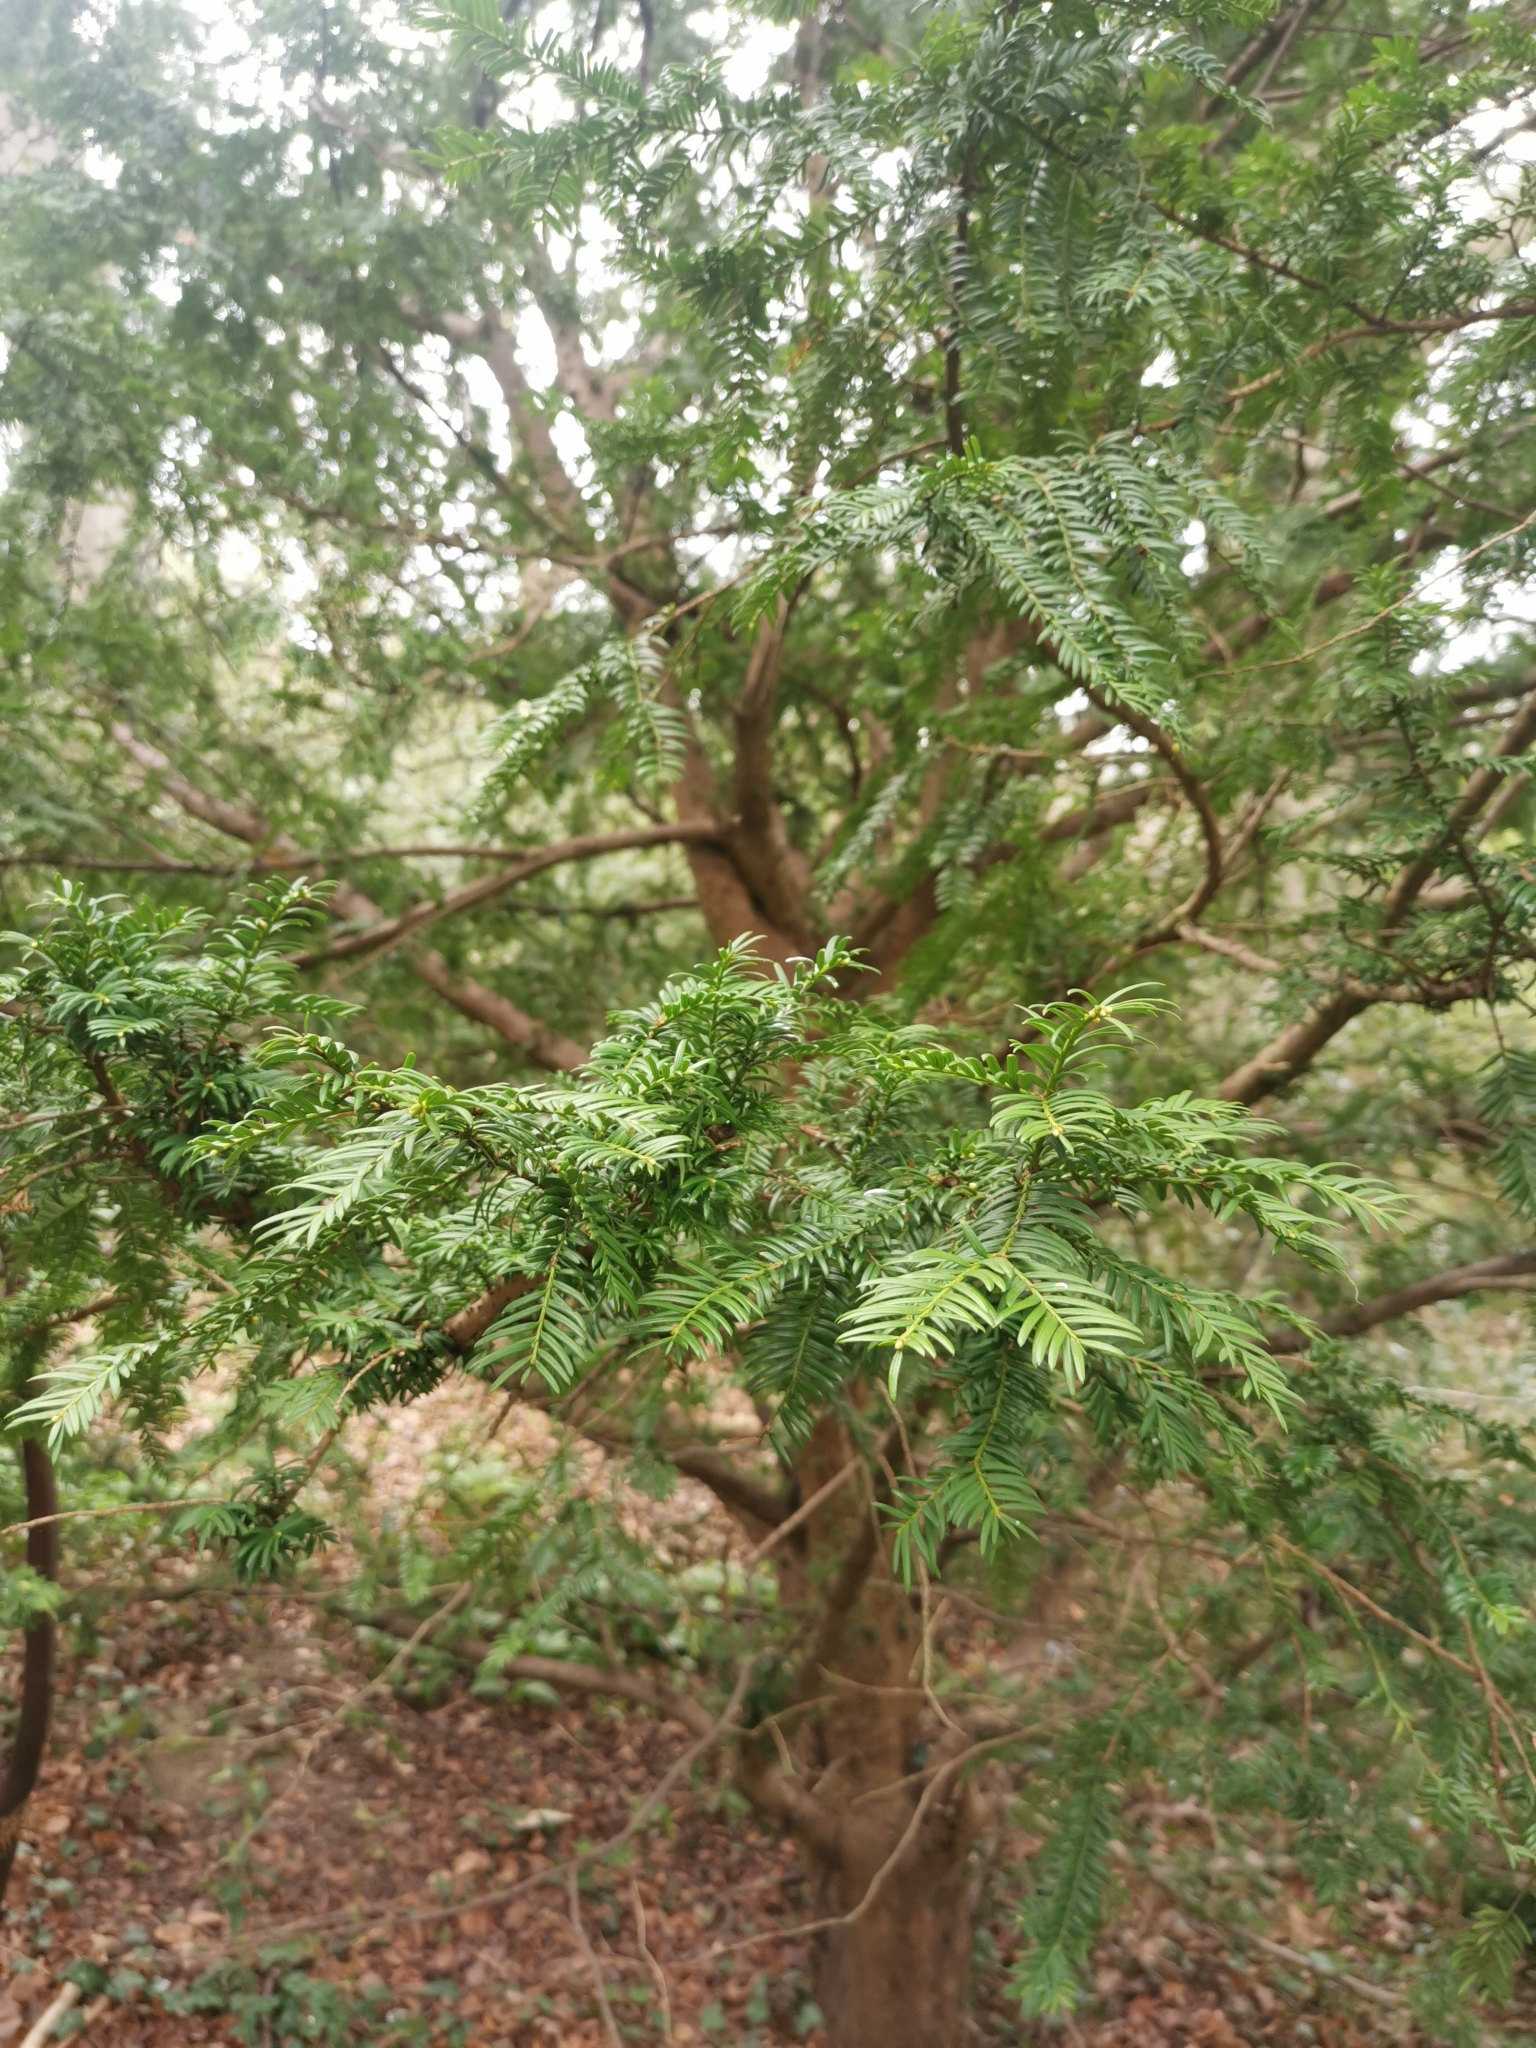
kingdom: Plantae
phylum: Tracheophyta
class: Pinopsida
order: Pinales
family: Taxaceae
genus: Taxus
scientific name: Taxus baccata
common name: Yew
